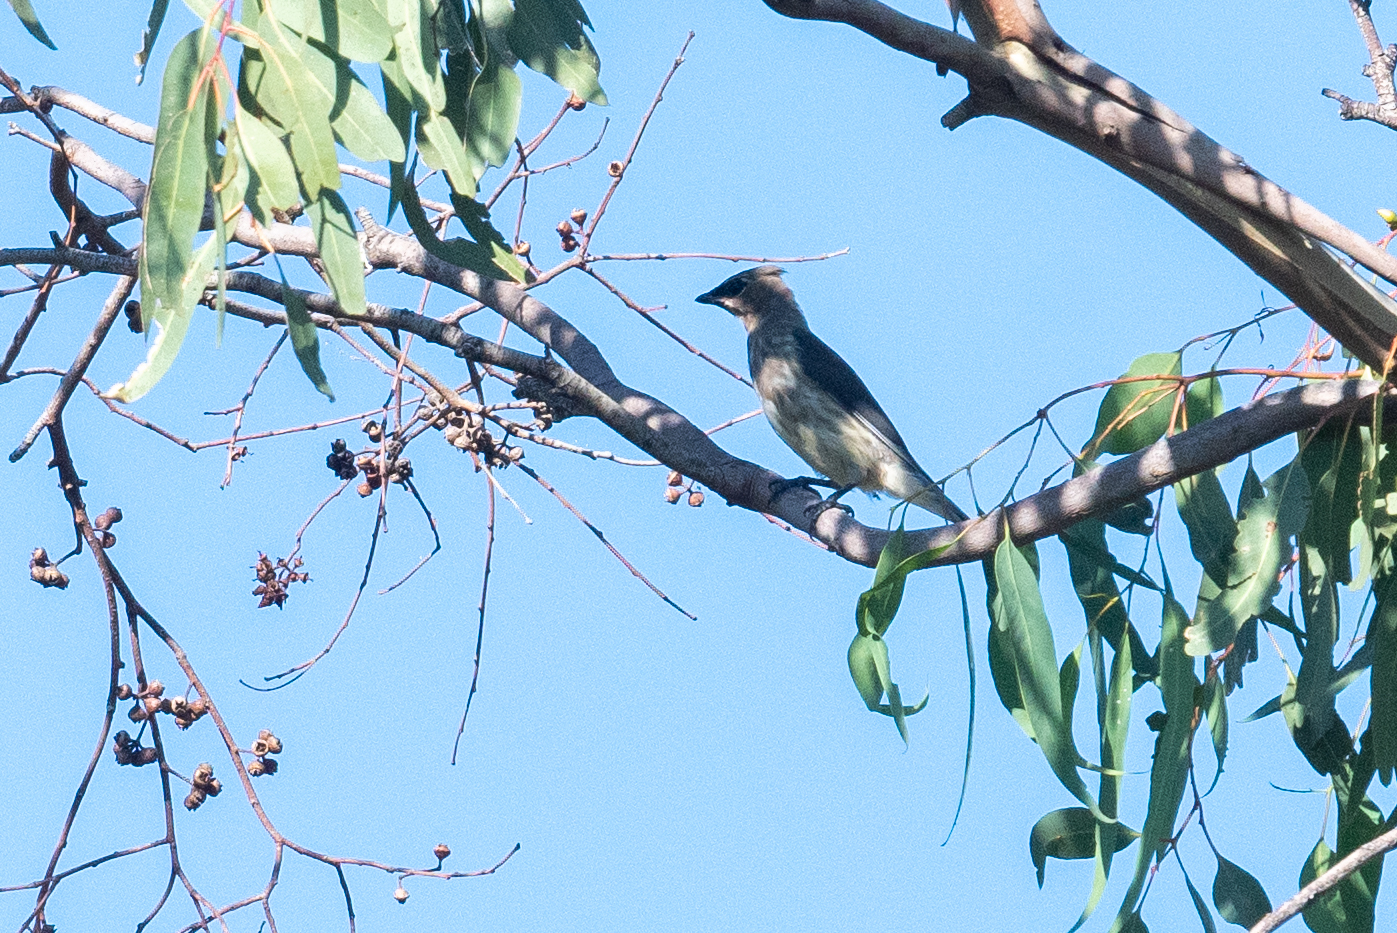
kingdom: Animalia
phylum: Chordata
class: Aves
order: Passeriformes
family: Bombycillidae
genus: Bombycilla
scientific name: Bombycilla cedrorum
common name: Cedar waxwing
